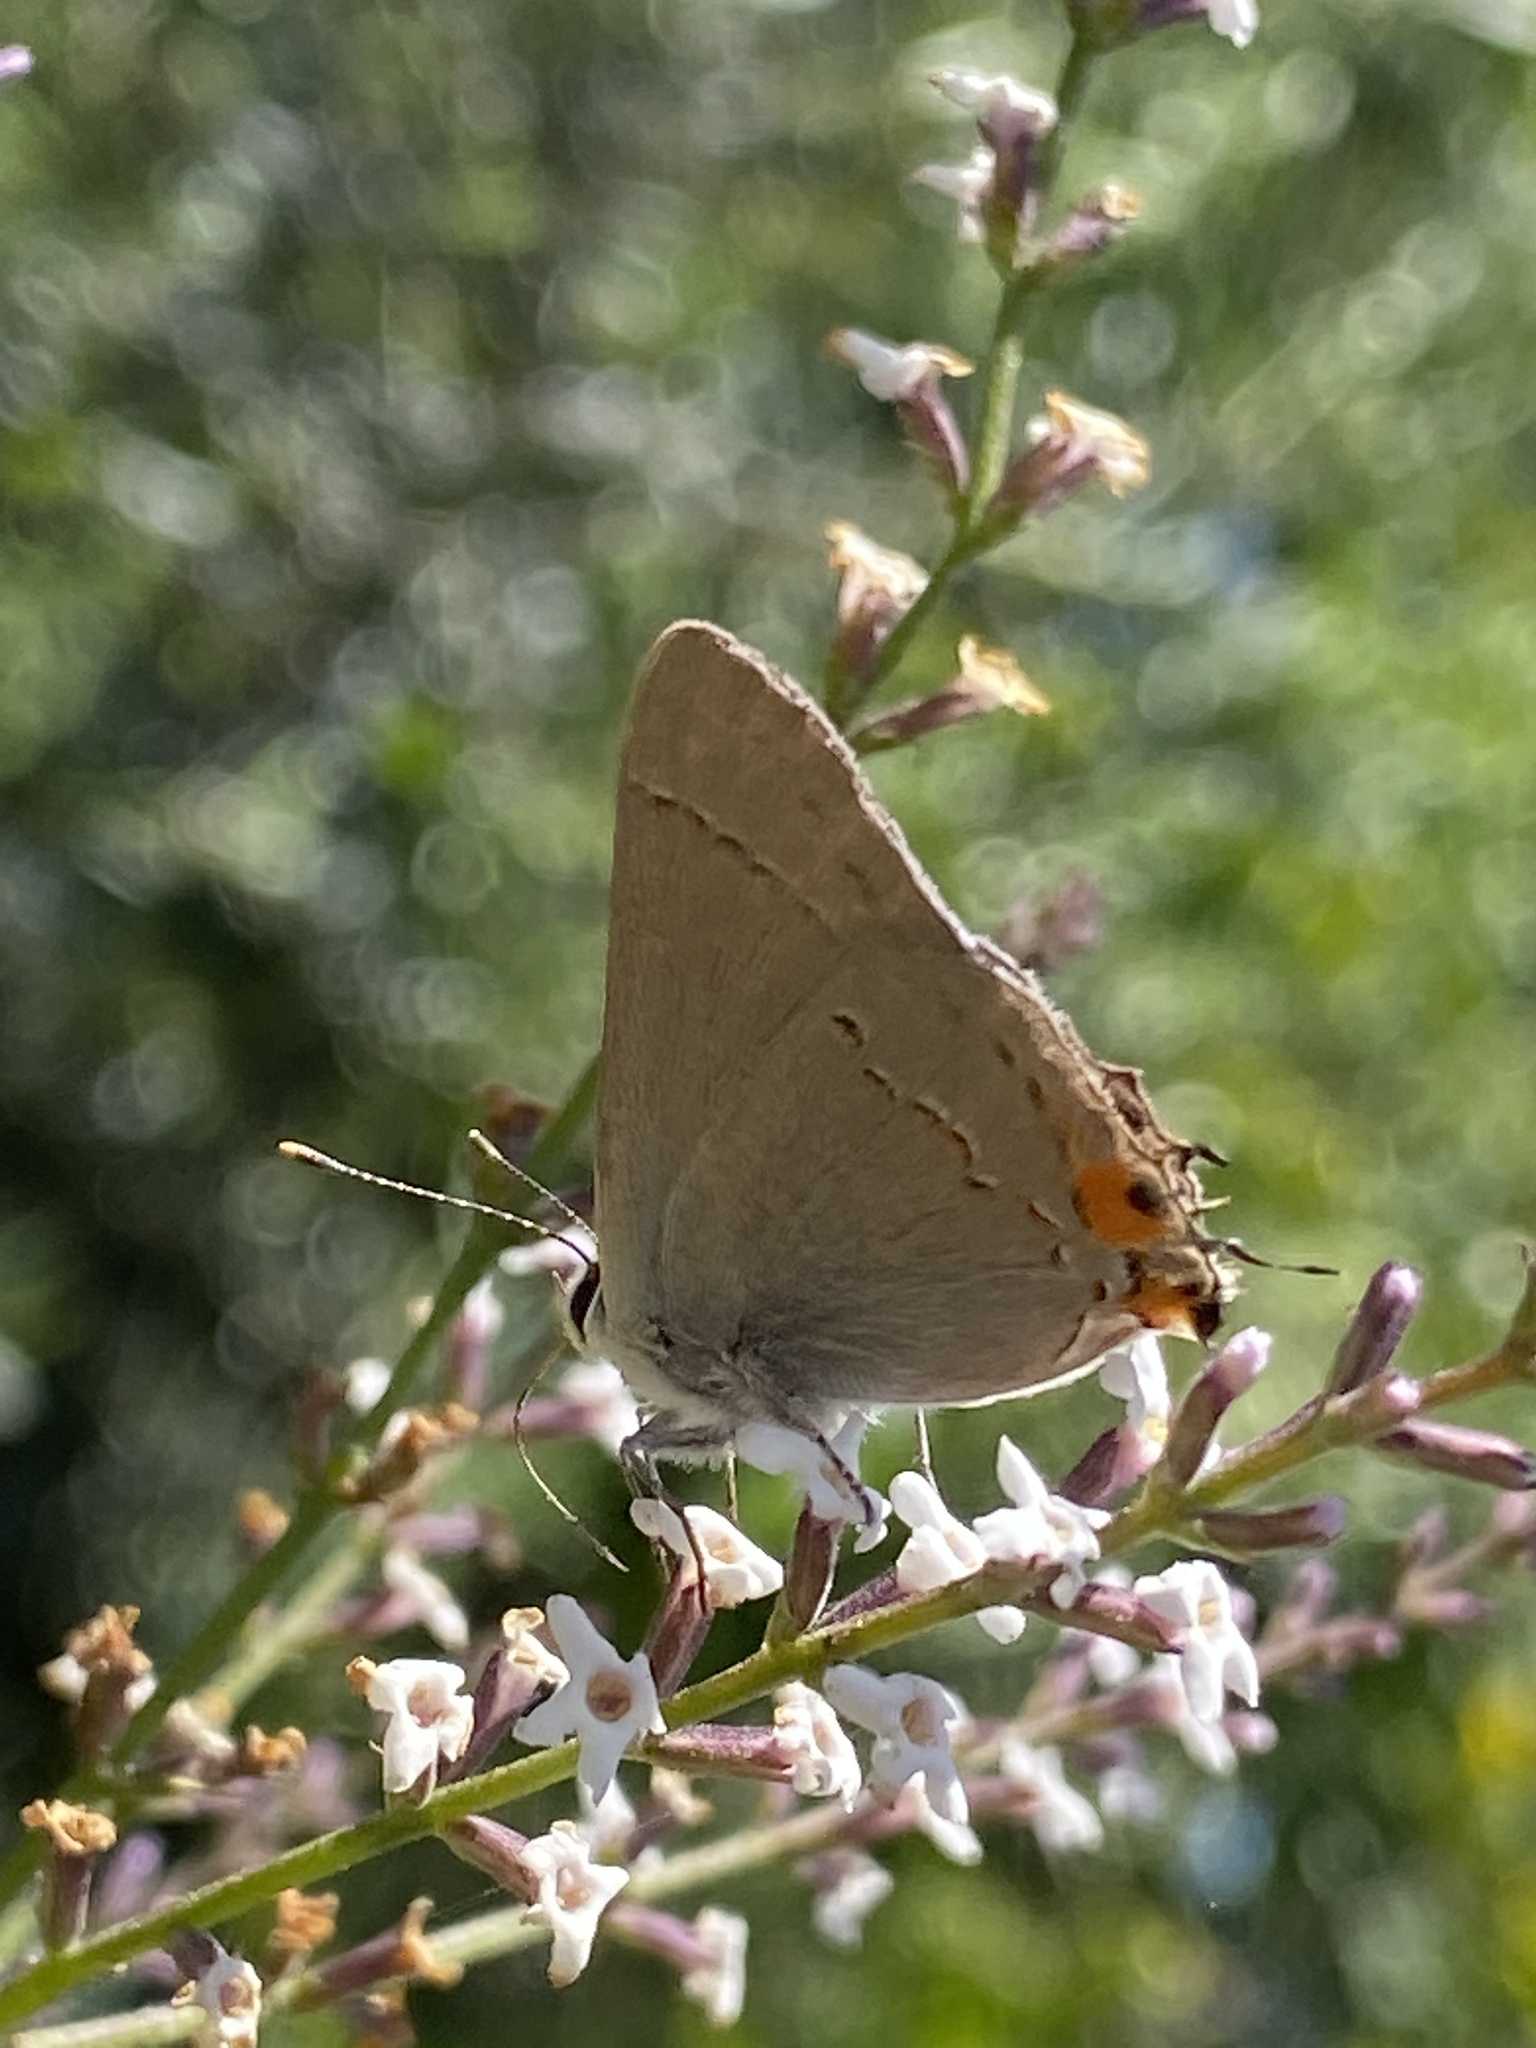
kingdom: Animalia
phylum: Arthropoda
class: Insecta
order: Lepidoptera
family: Lycaenidae
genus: Strymon
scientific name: Strymon melinus
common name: Gray hairstreak
